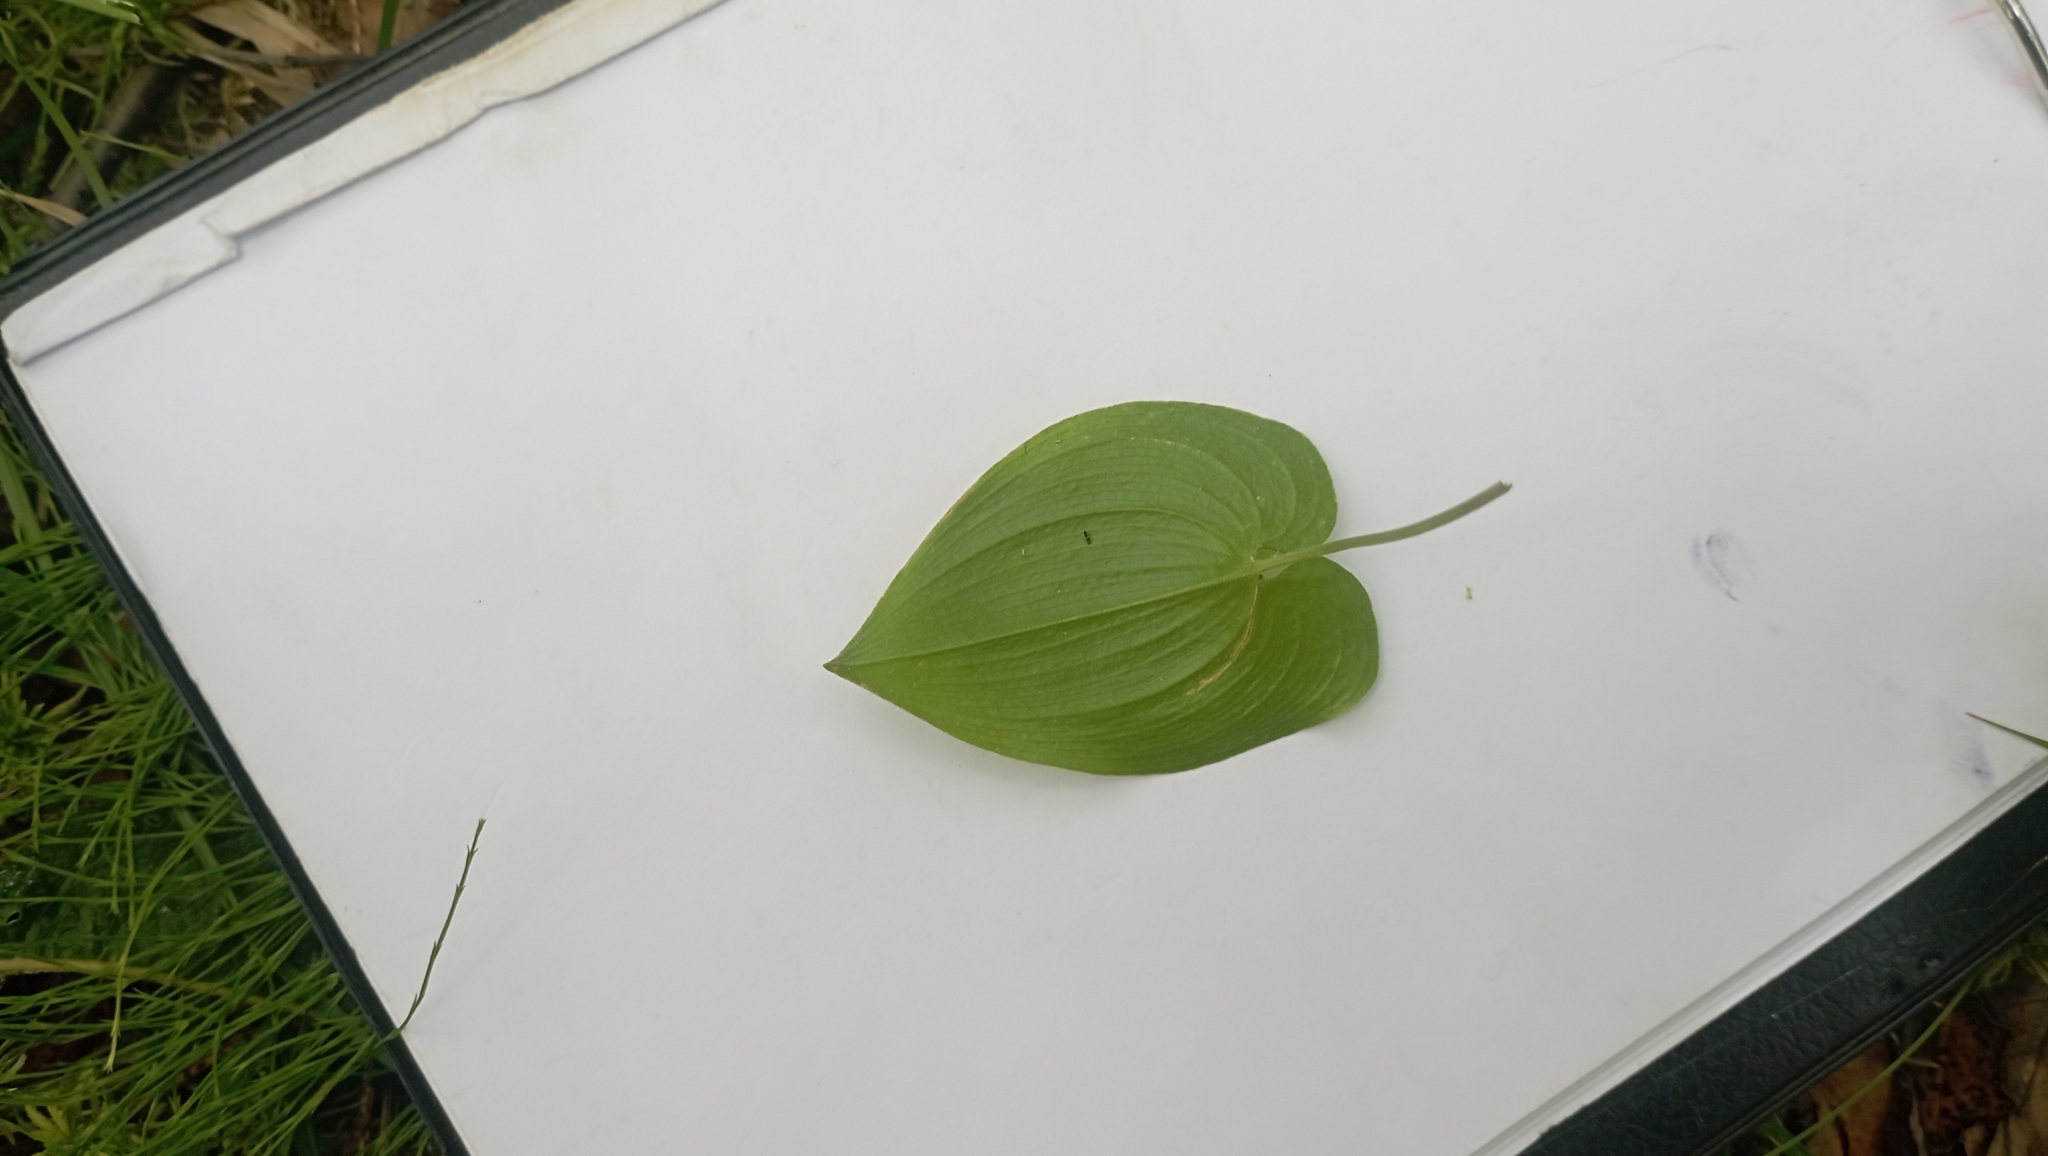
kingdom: Plantae
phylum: Tracheophyta
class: Liliopsida
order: Asparagales
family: Asparagaceae
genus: Maianthemum
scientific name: Maianthemum bifolium
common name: May lily
